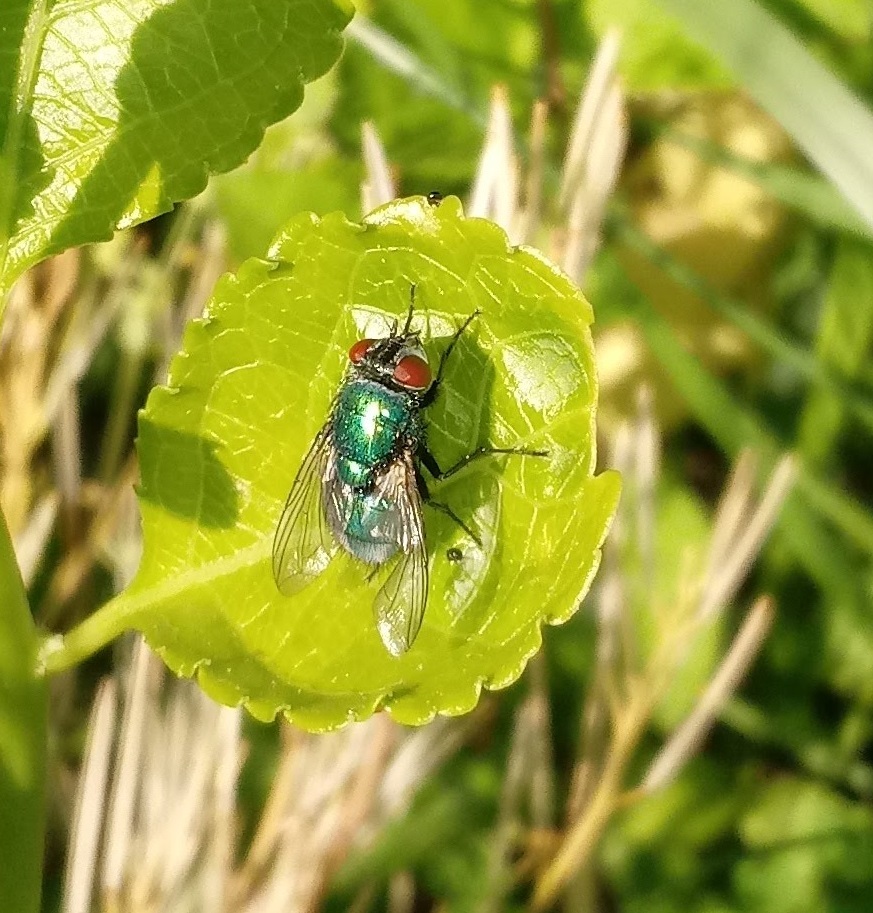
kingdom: Animalia
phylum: Arthropoda
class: Insecta
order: Diptera
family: Calliphoridae
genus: Lucilia
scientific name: Lucilia sericata
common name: Blow fly
